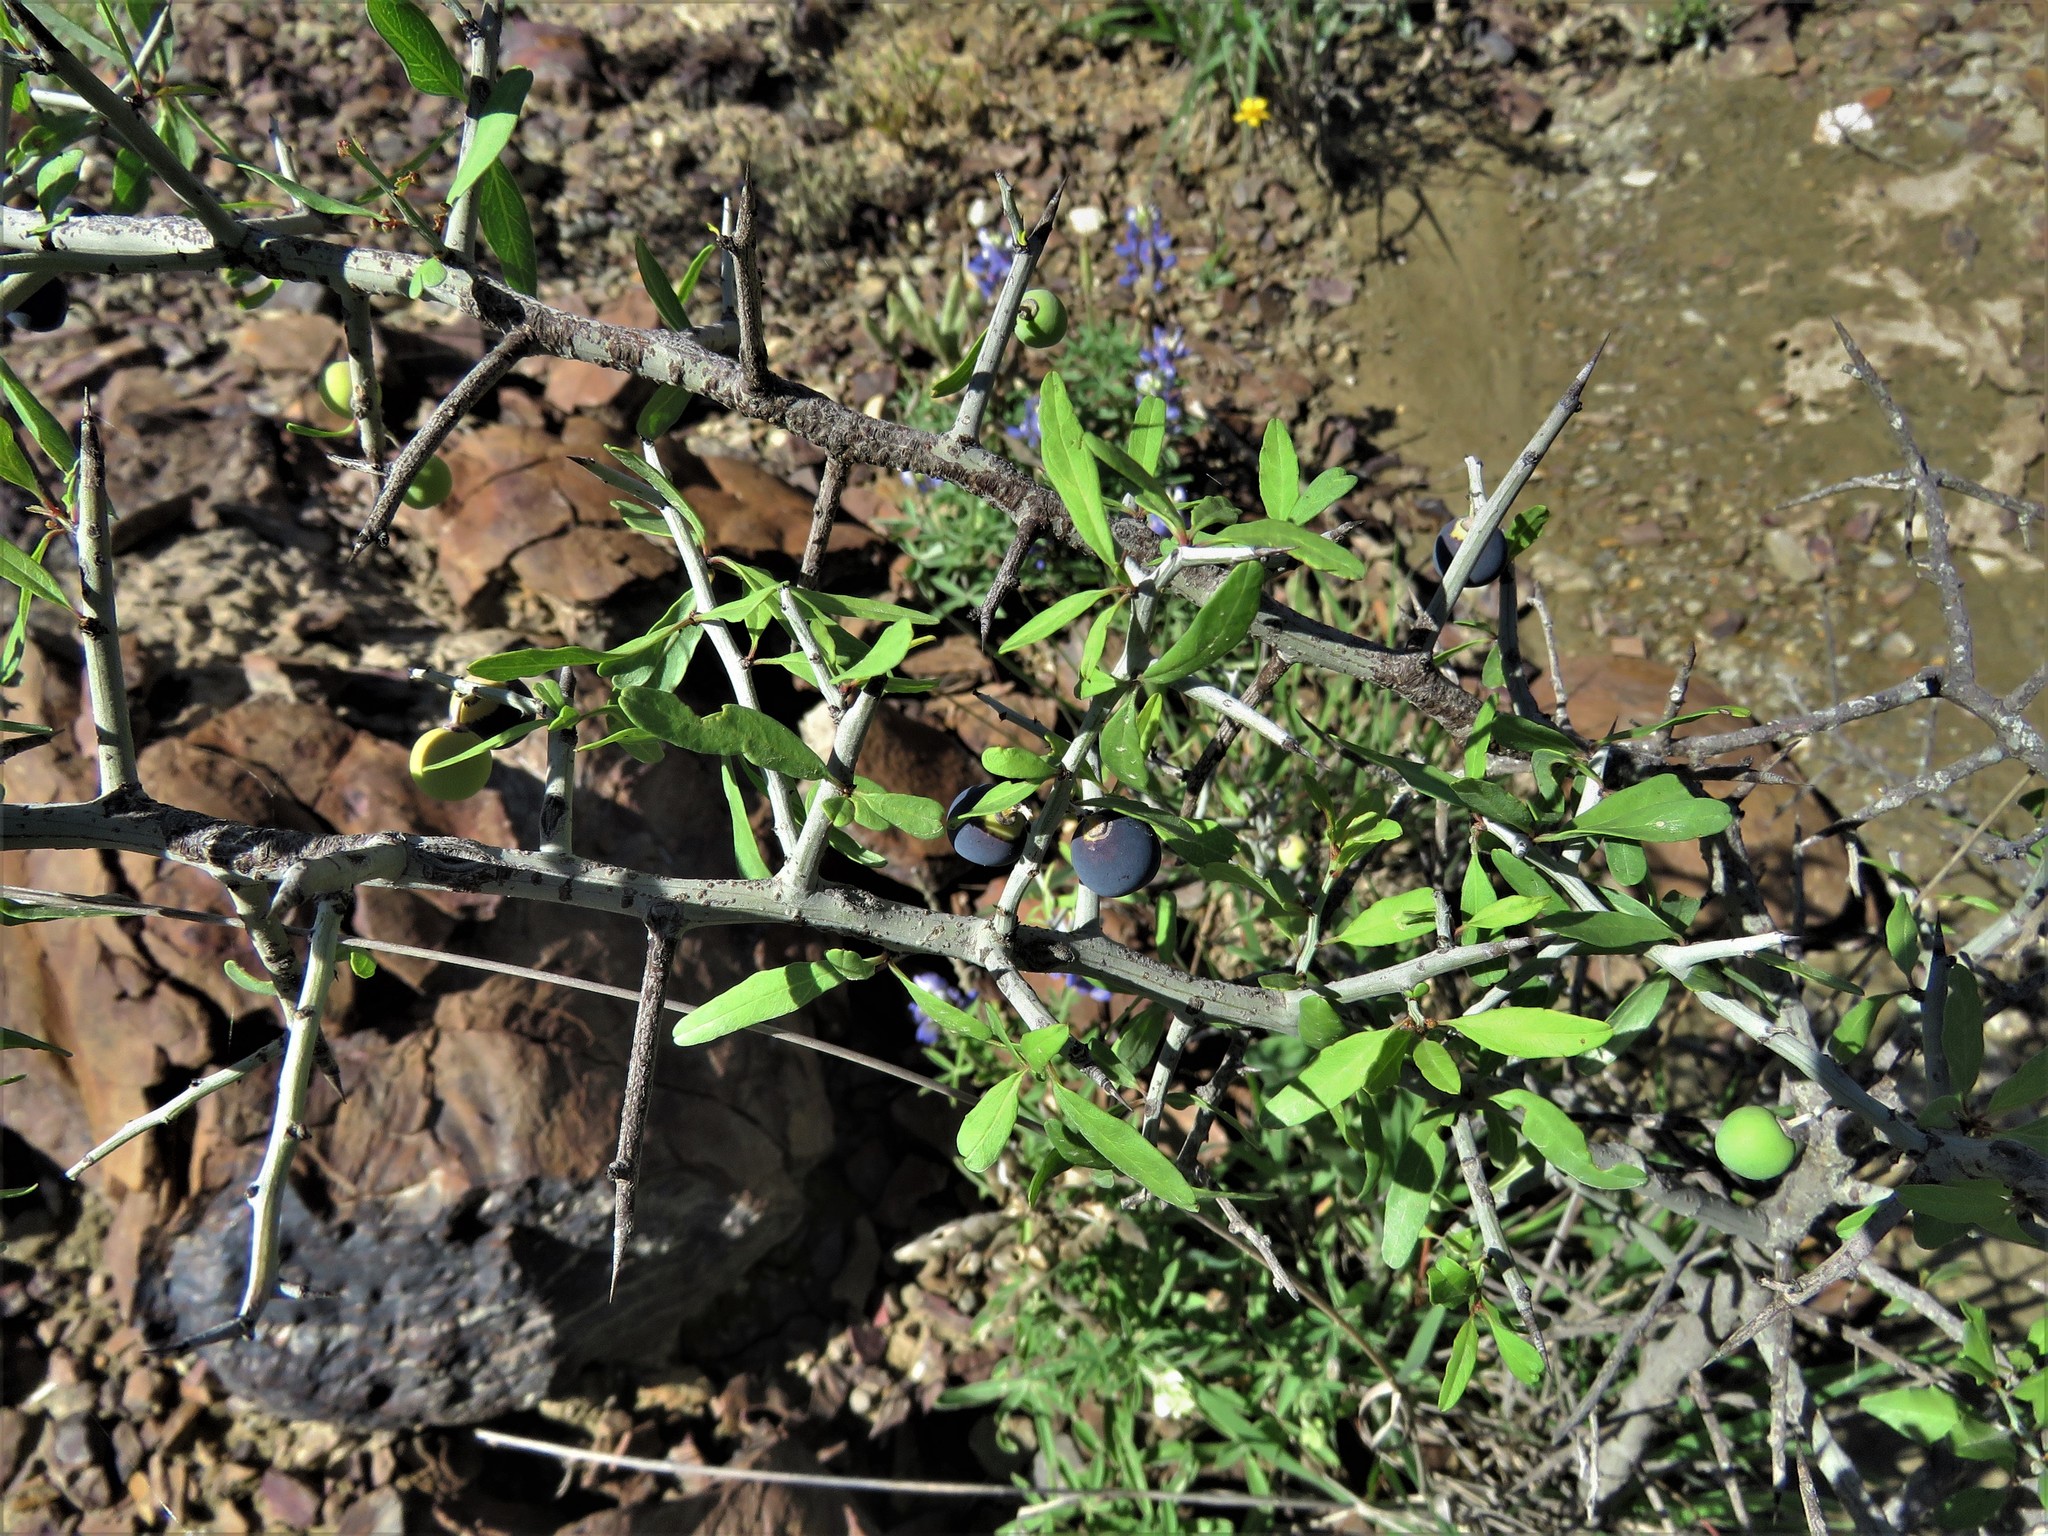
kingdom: Plantae
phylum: Tracheophyta
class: Magnoliopsida
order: Rosales
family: Rhamnaceae
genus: Sarcomphalus
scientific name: Sarcomphalus obtusifolius
